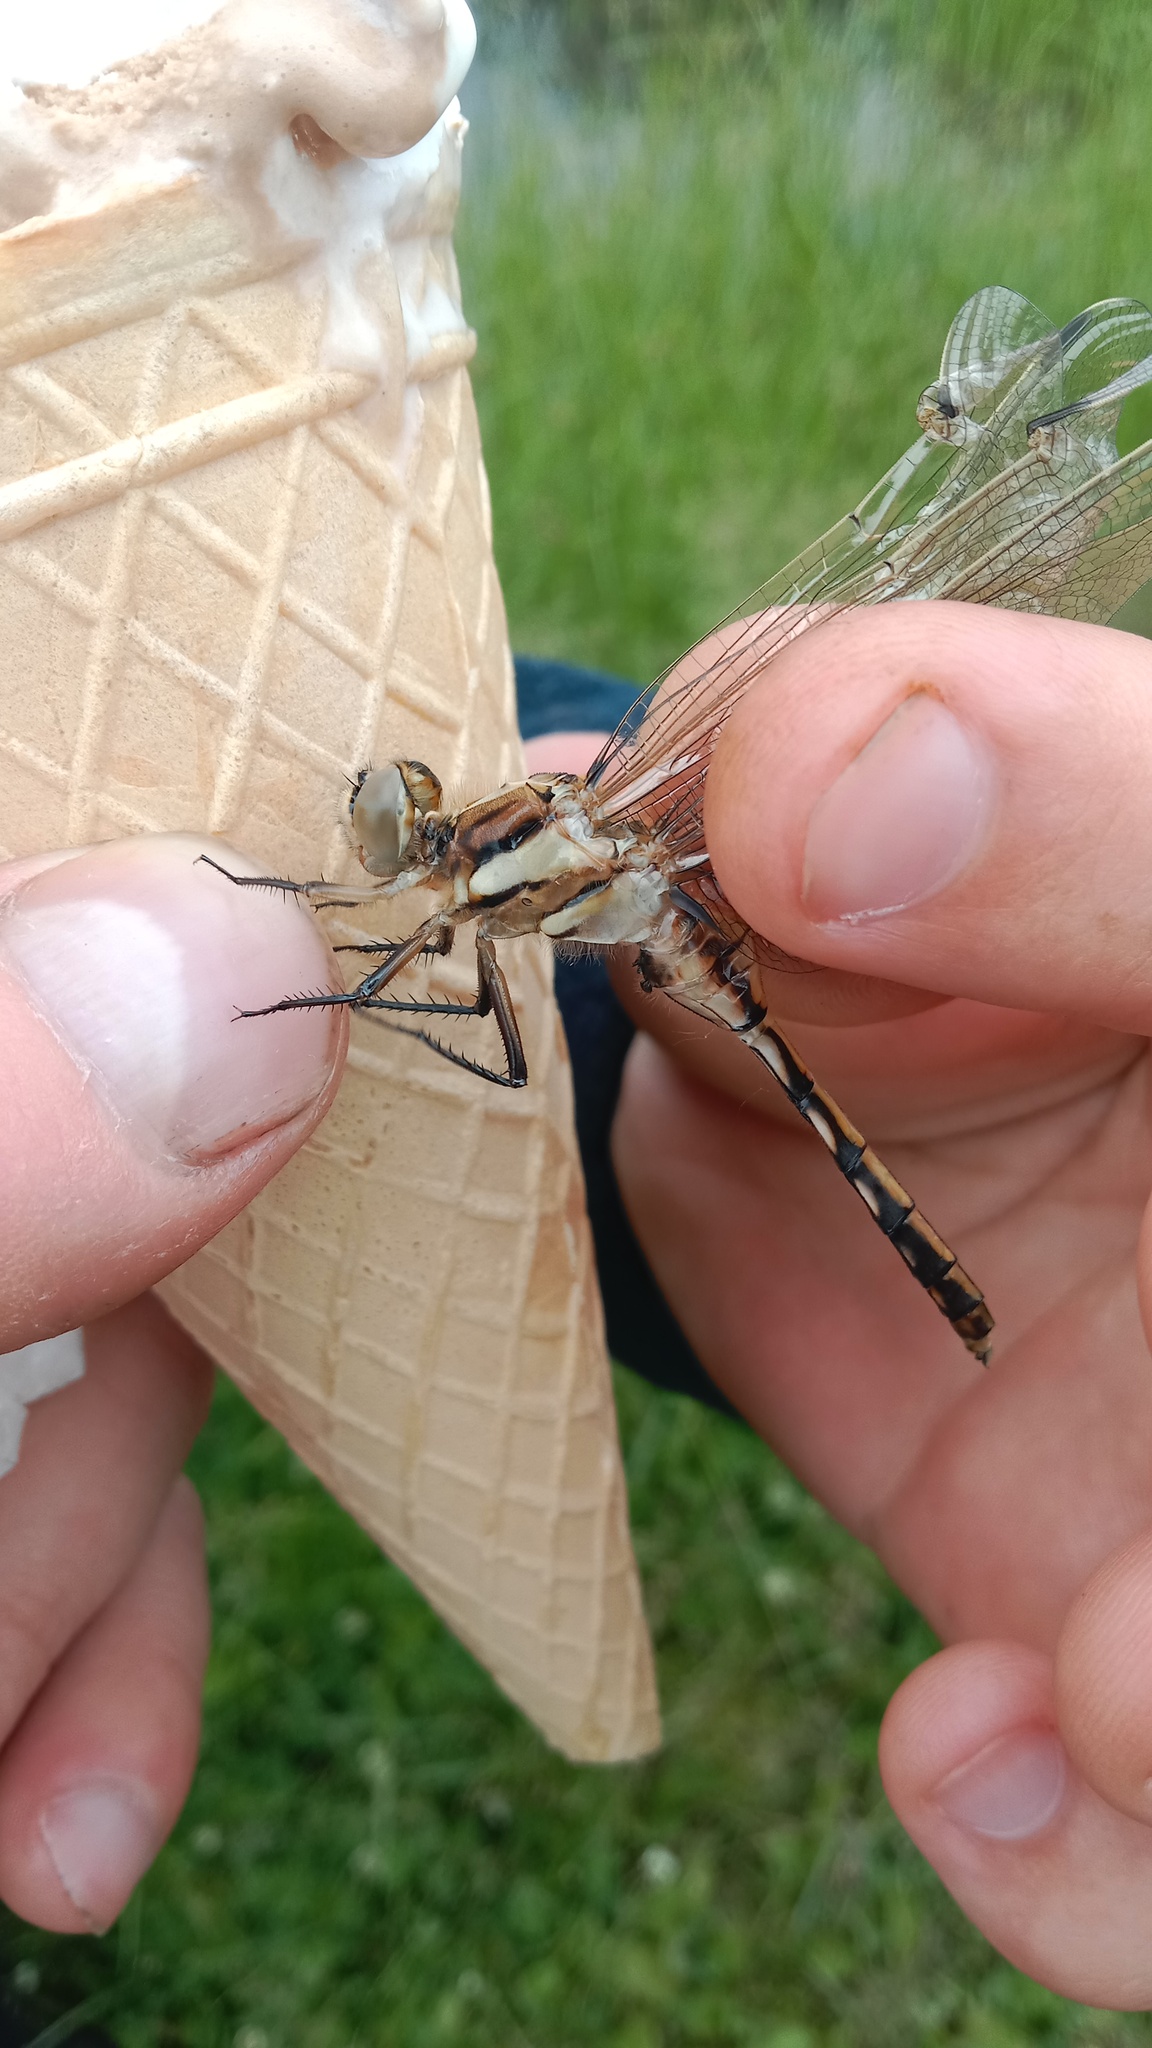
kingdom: Animalia
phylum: Arthropoda
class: Insecta
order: Odonata
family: Libellulidae
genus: Orthetrum
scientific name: Orthetrum albistylum
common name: White-tailed skimmer
